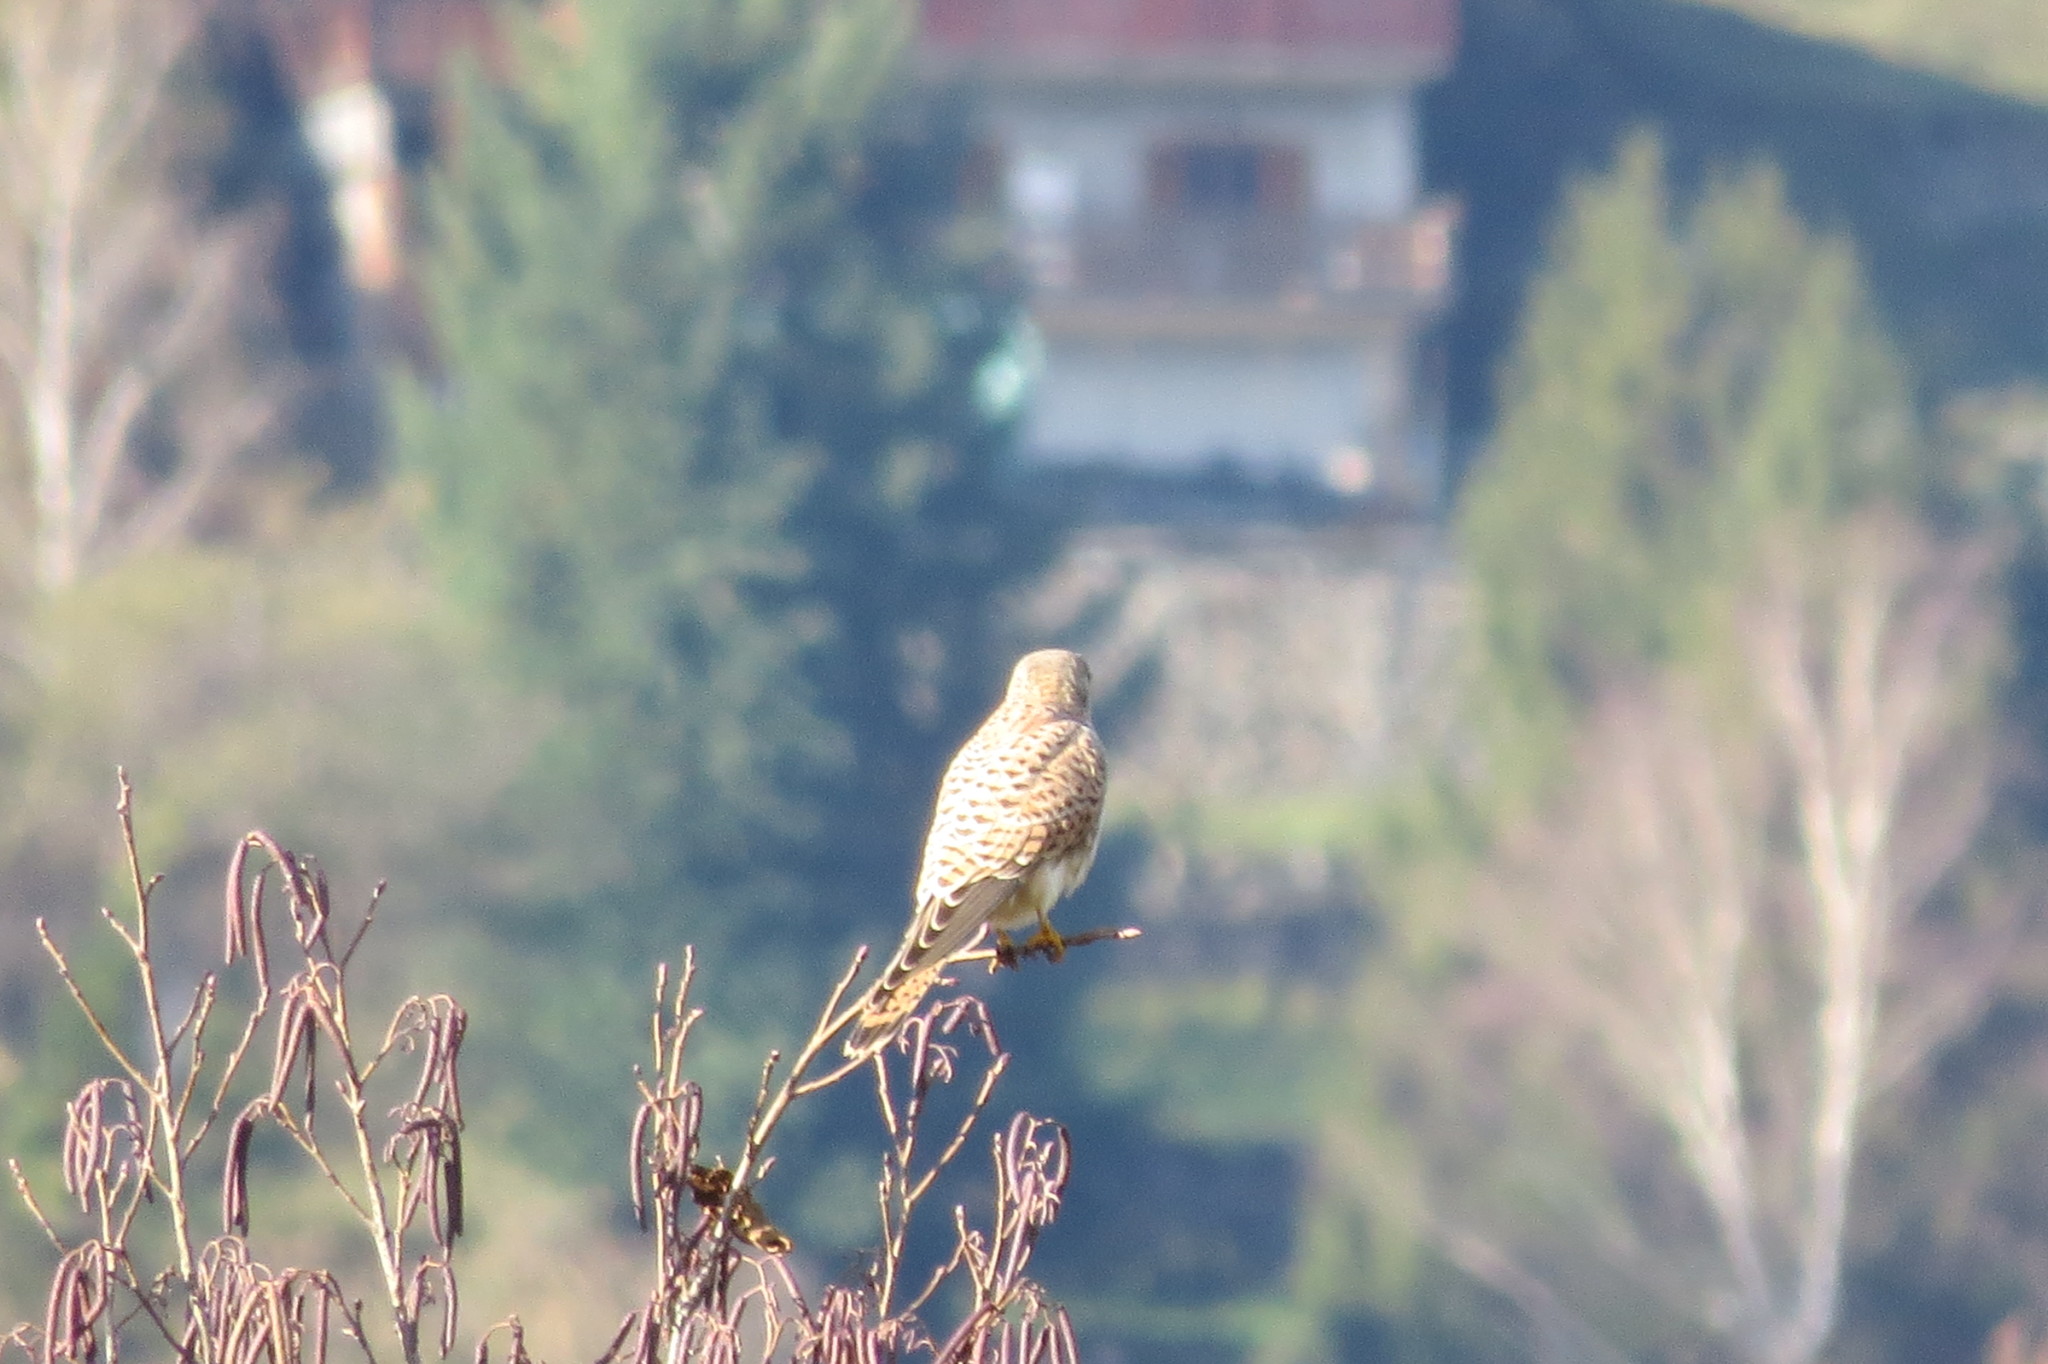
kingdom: Animalia
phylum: Chordata
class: Aves
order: Falconiformes
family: Falconidae
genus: Falco
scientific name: Falco tinnunculus
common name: Common kestrel
